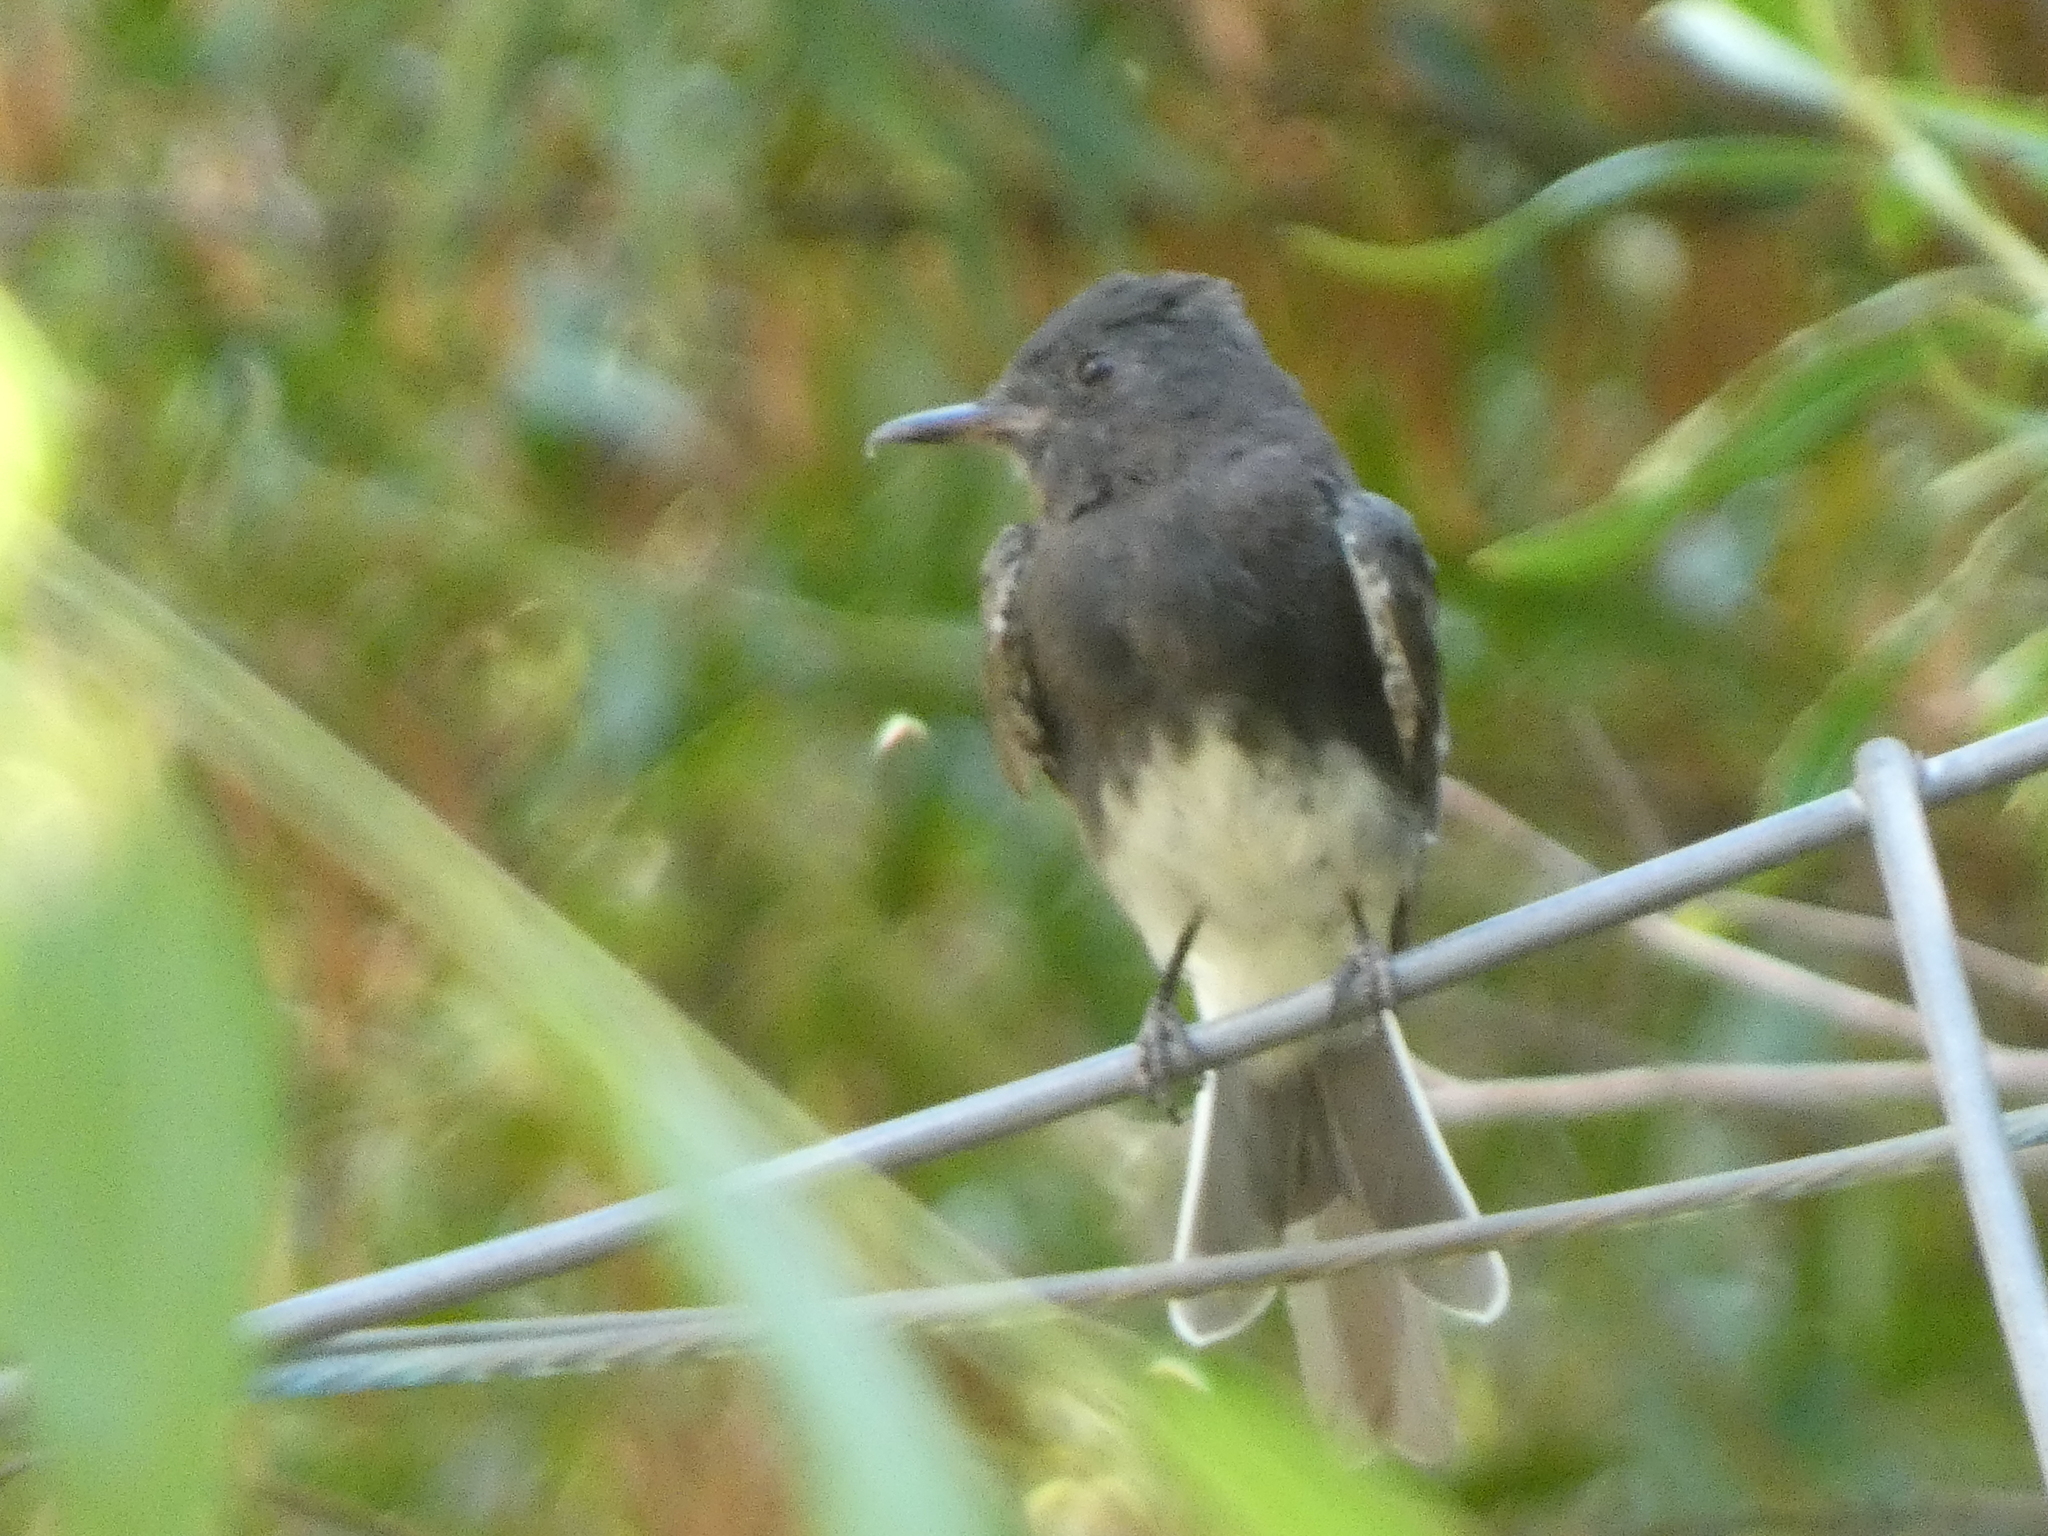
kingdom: Animalia
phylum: Chordata
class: Aves
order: Passeriformes
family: Tyrannidae
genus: Sayornis
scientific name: Sayornis nigricans
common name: Black phoebe
